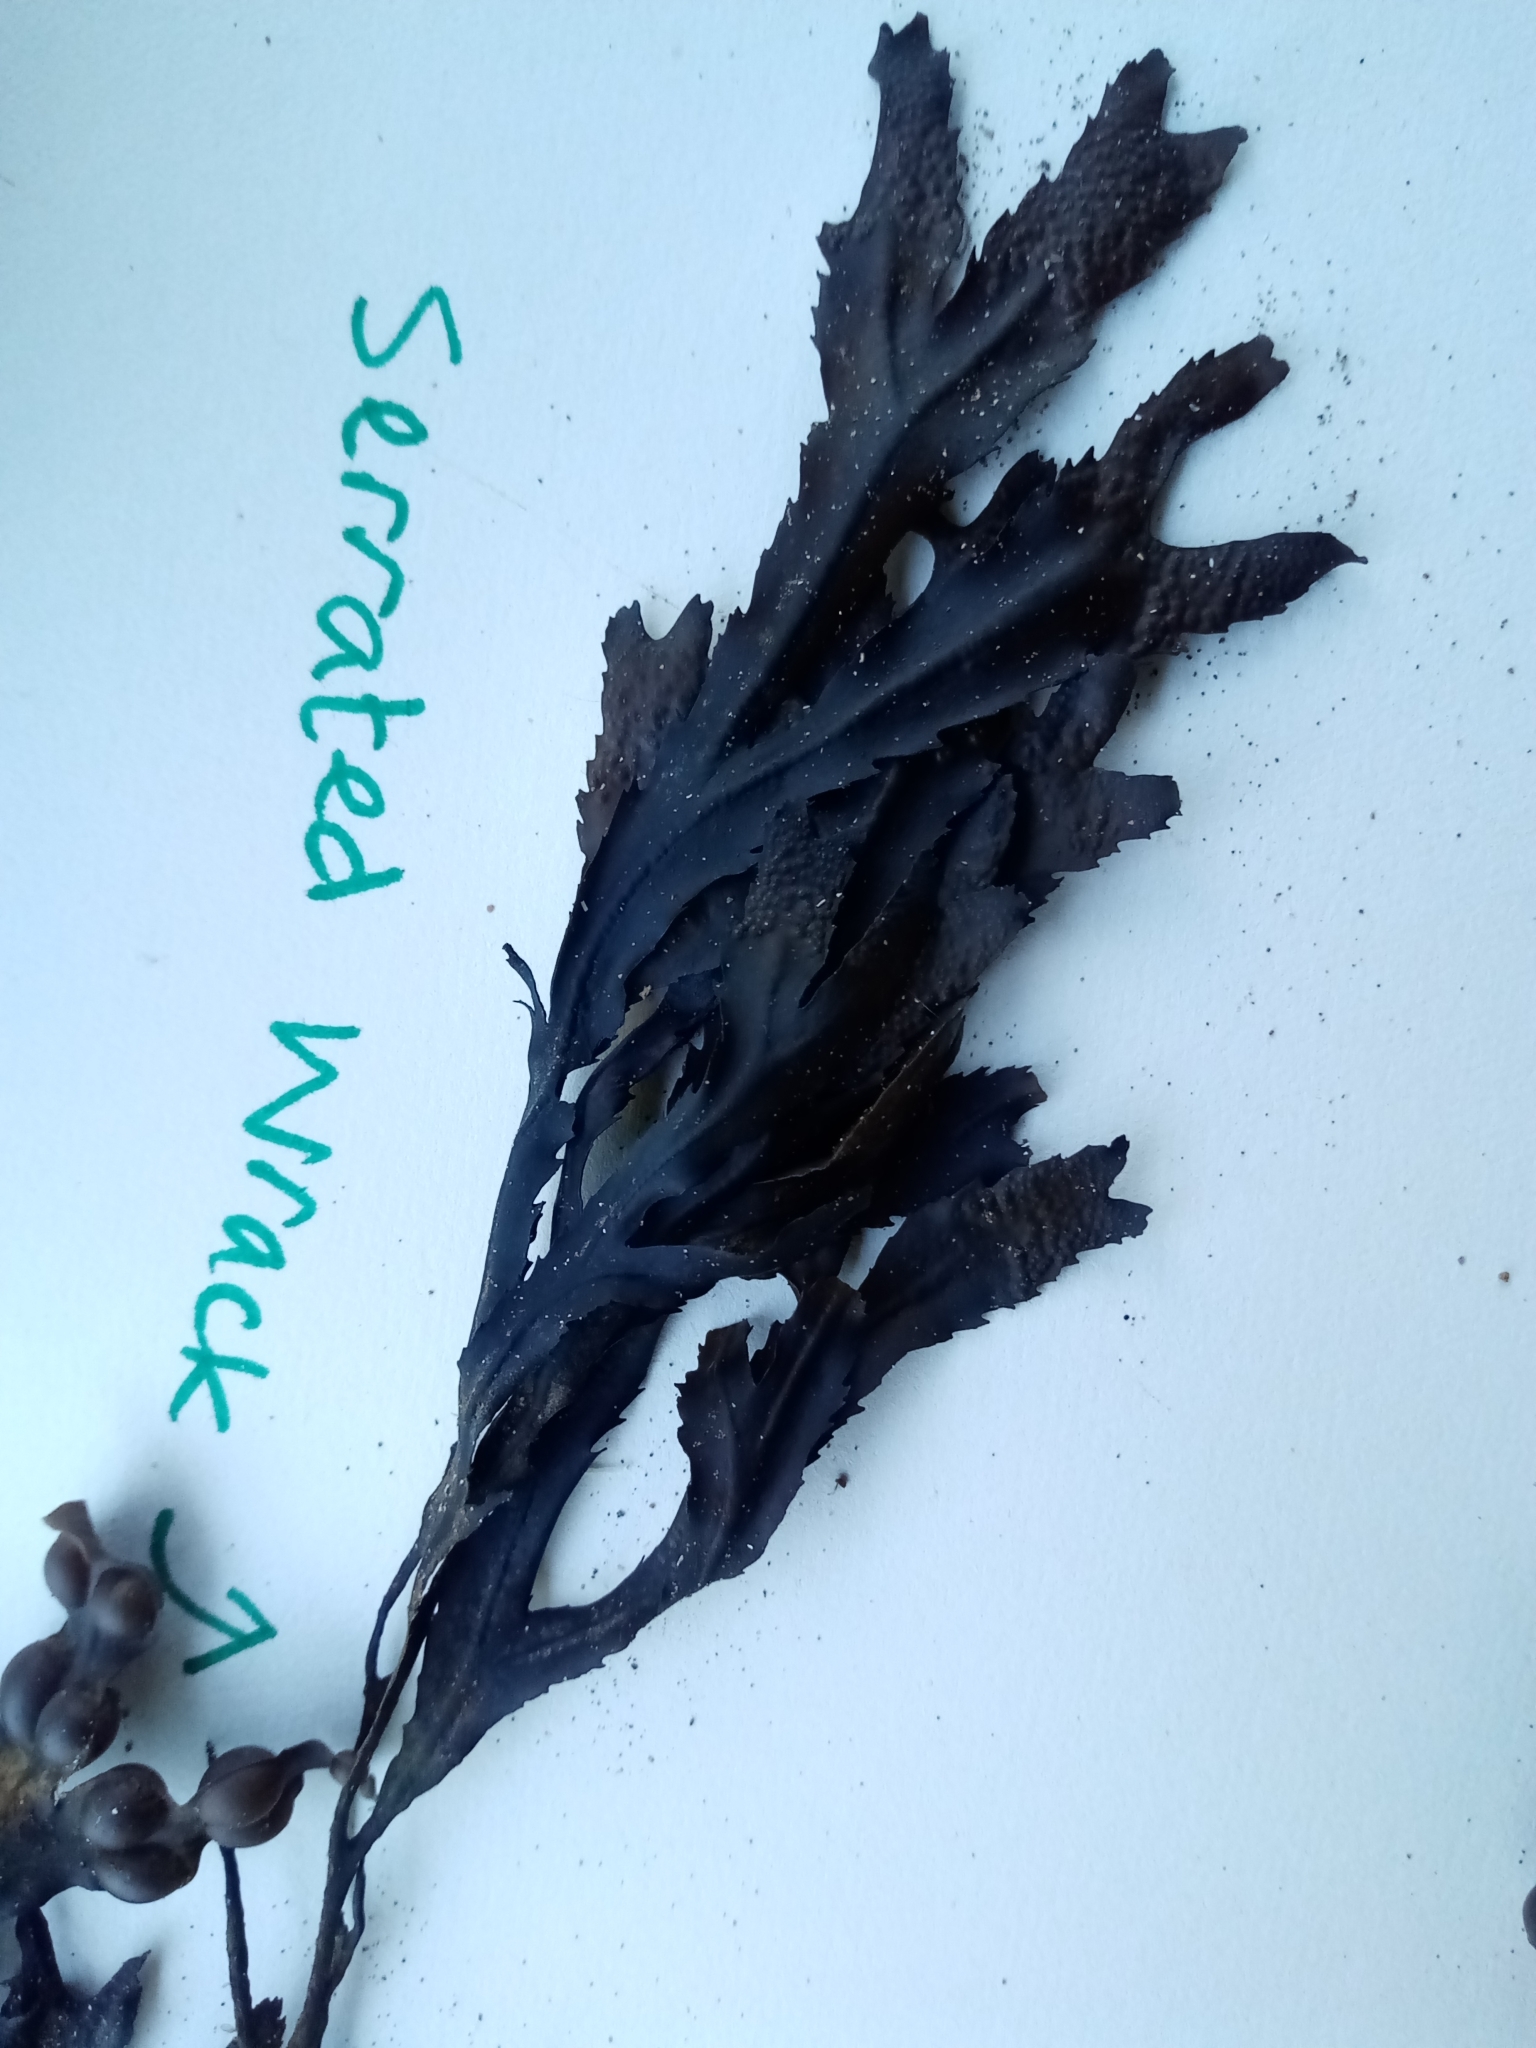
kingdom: Chromista
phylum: Ochrophyta
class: Phaeophyceae
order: Fucales
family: Fucaceae
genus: Fucus
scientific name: Fucus serratus
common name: Toothed wrack
